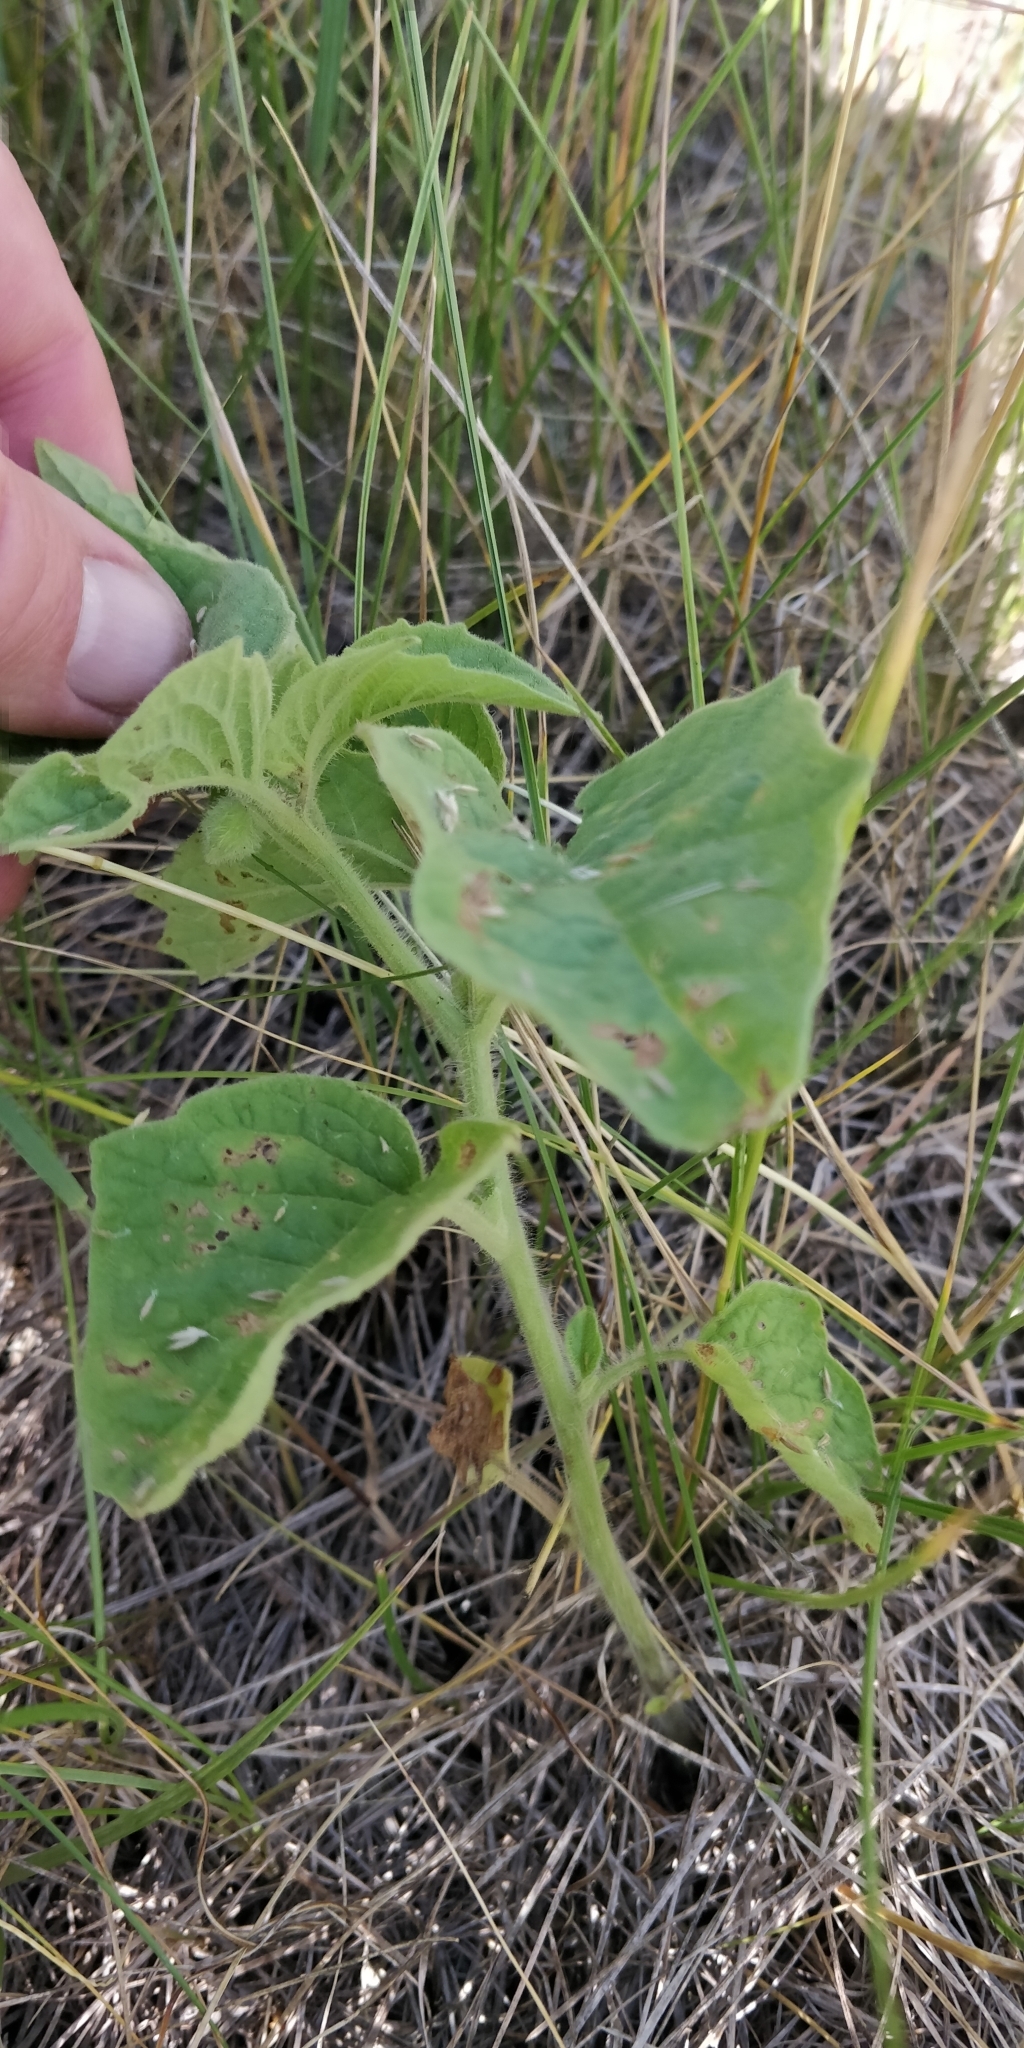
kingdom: Plantae
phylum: Tracheophyta
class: Magnoliopsida
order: Solanales
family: Solanaceae
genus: Physalis
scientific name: Physalis heterophylla
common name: Clammy ground-cherry
